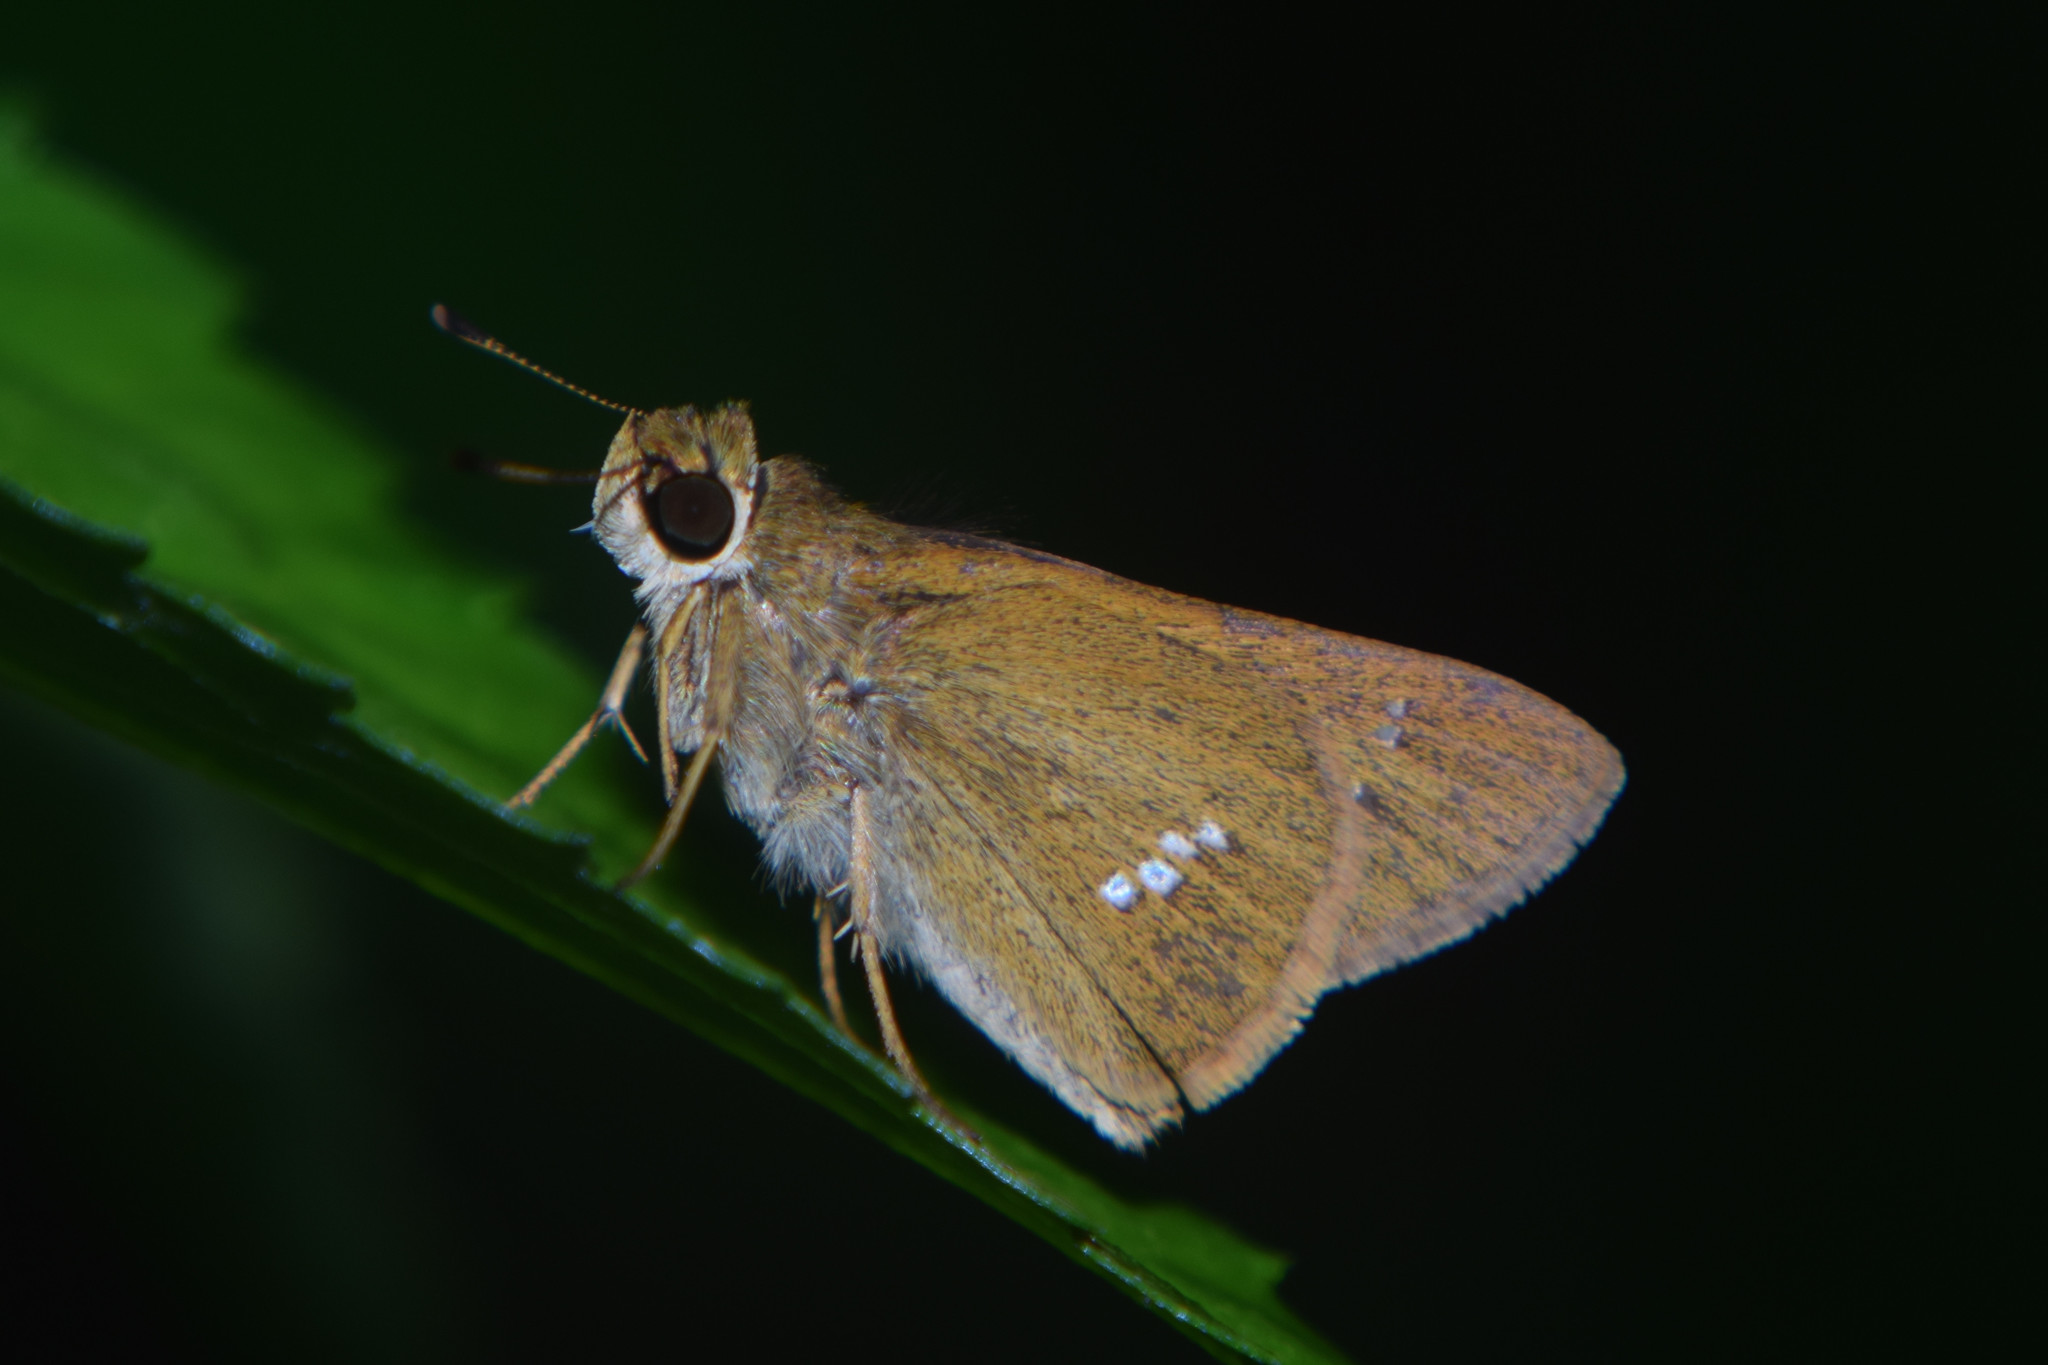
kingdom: Animalia
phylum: Arthropoda
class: Insecta
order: Lepidoptera
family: Hesperiidae
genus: Parnara
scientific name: Parnara guttatus
